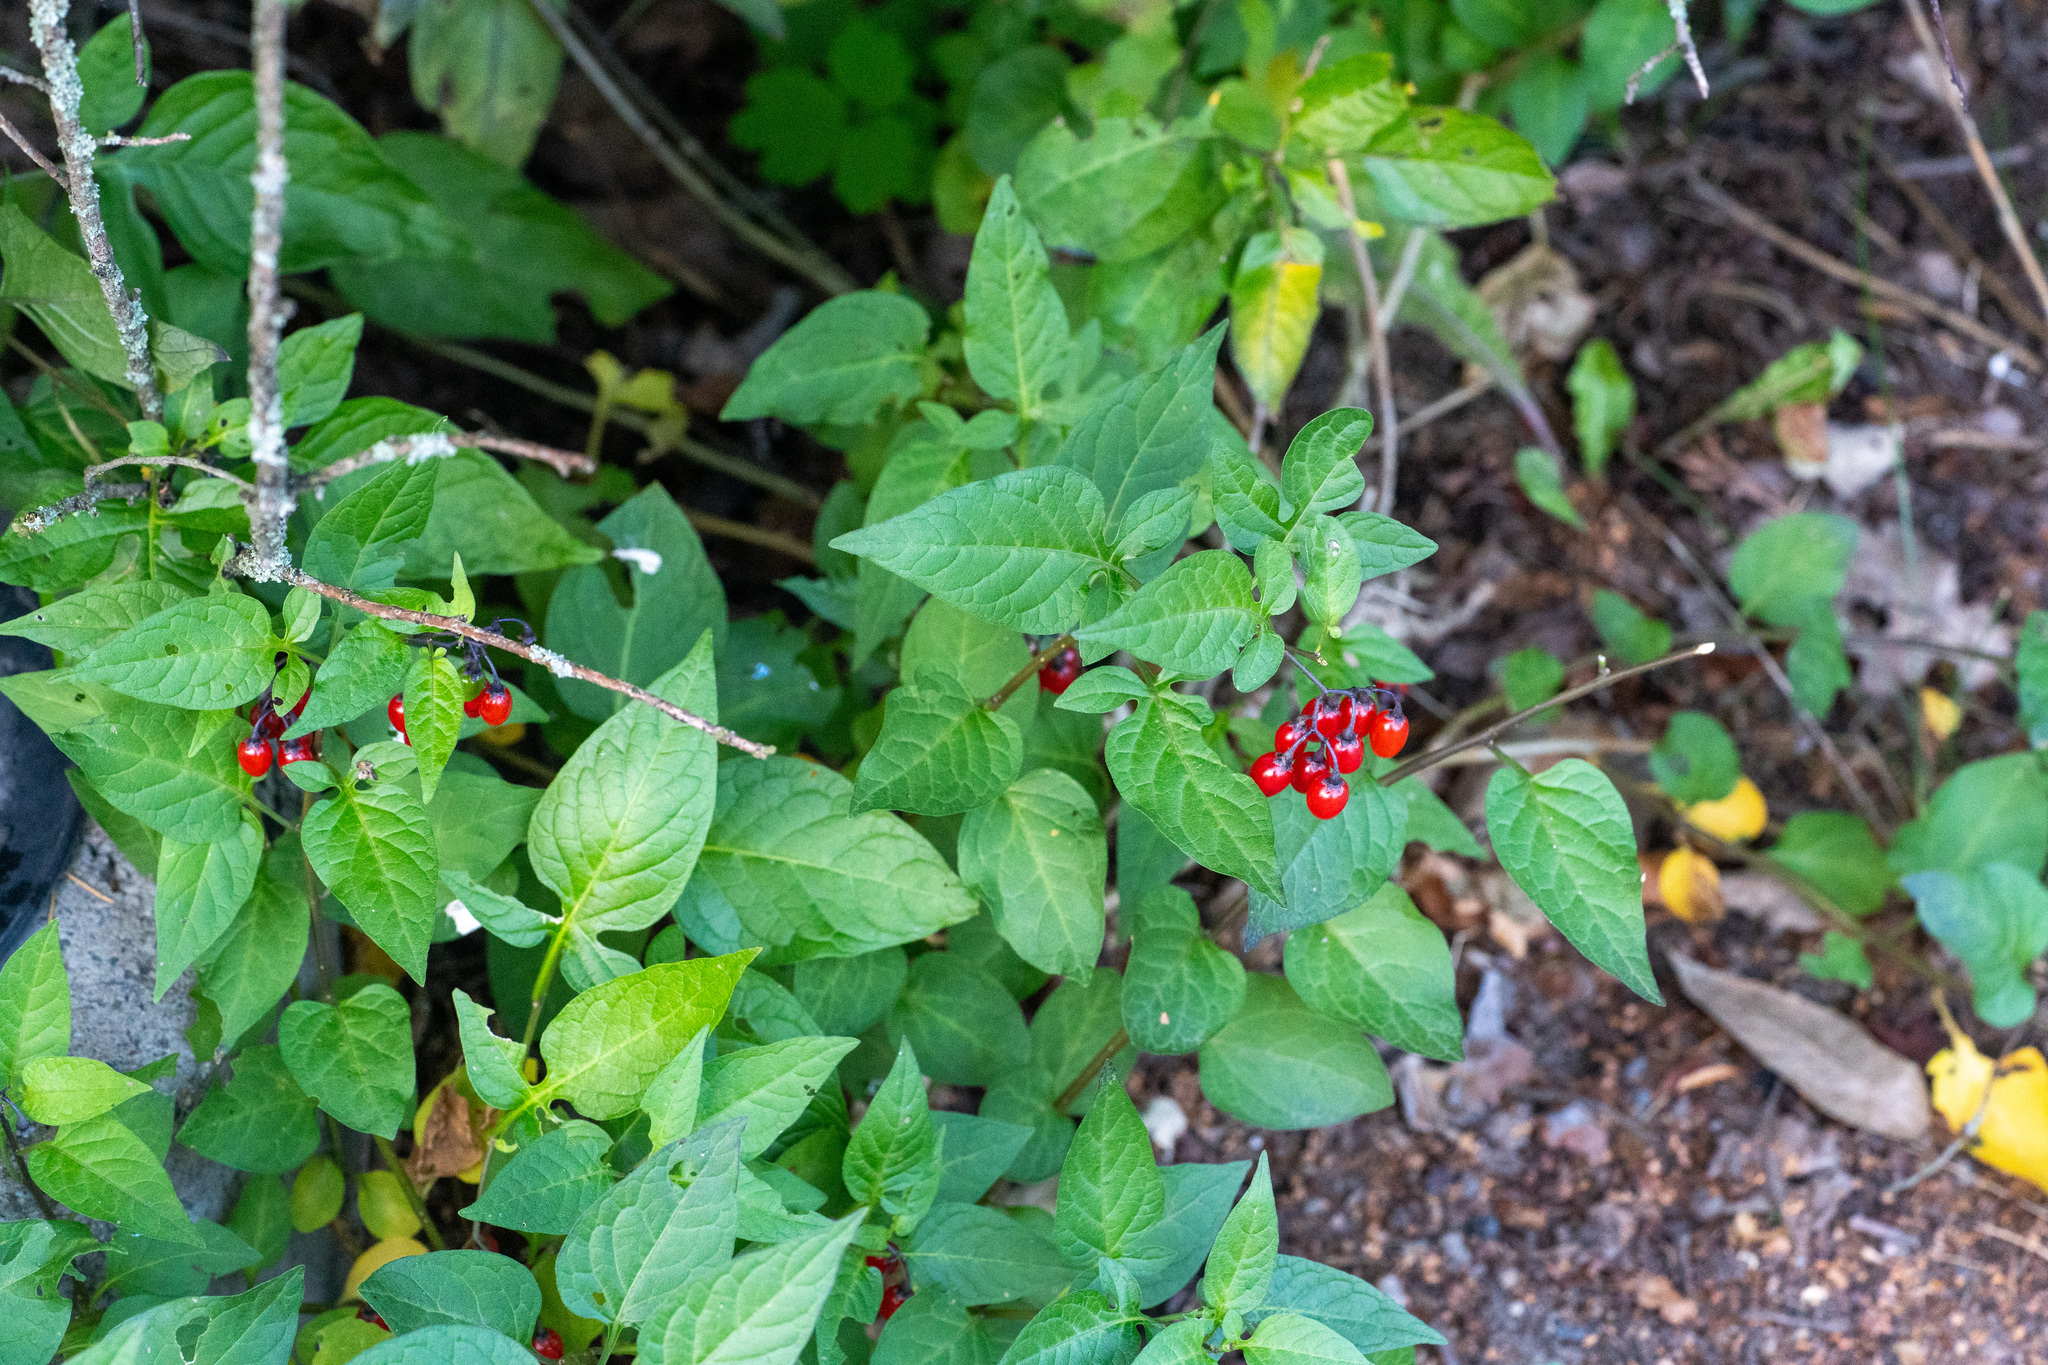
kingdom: Plantae
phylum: Tracheophyta
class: Magnoliopsida
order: Solanales
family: Solanaceae
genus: Solanum
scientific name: Solanum dulcamara
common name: Climbing nightshade
